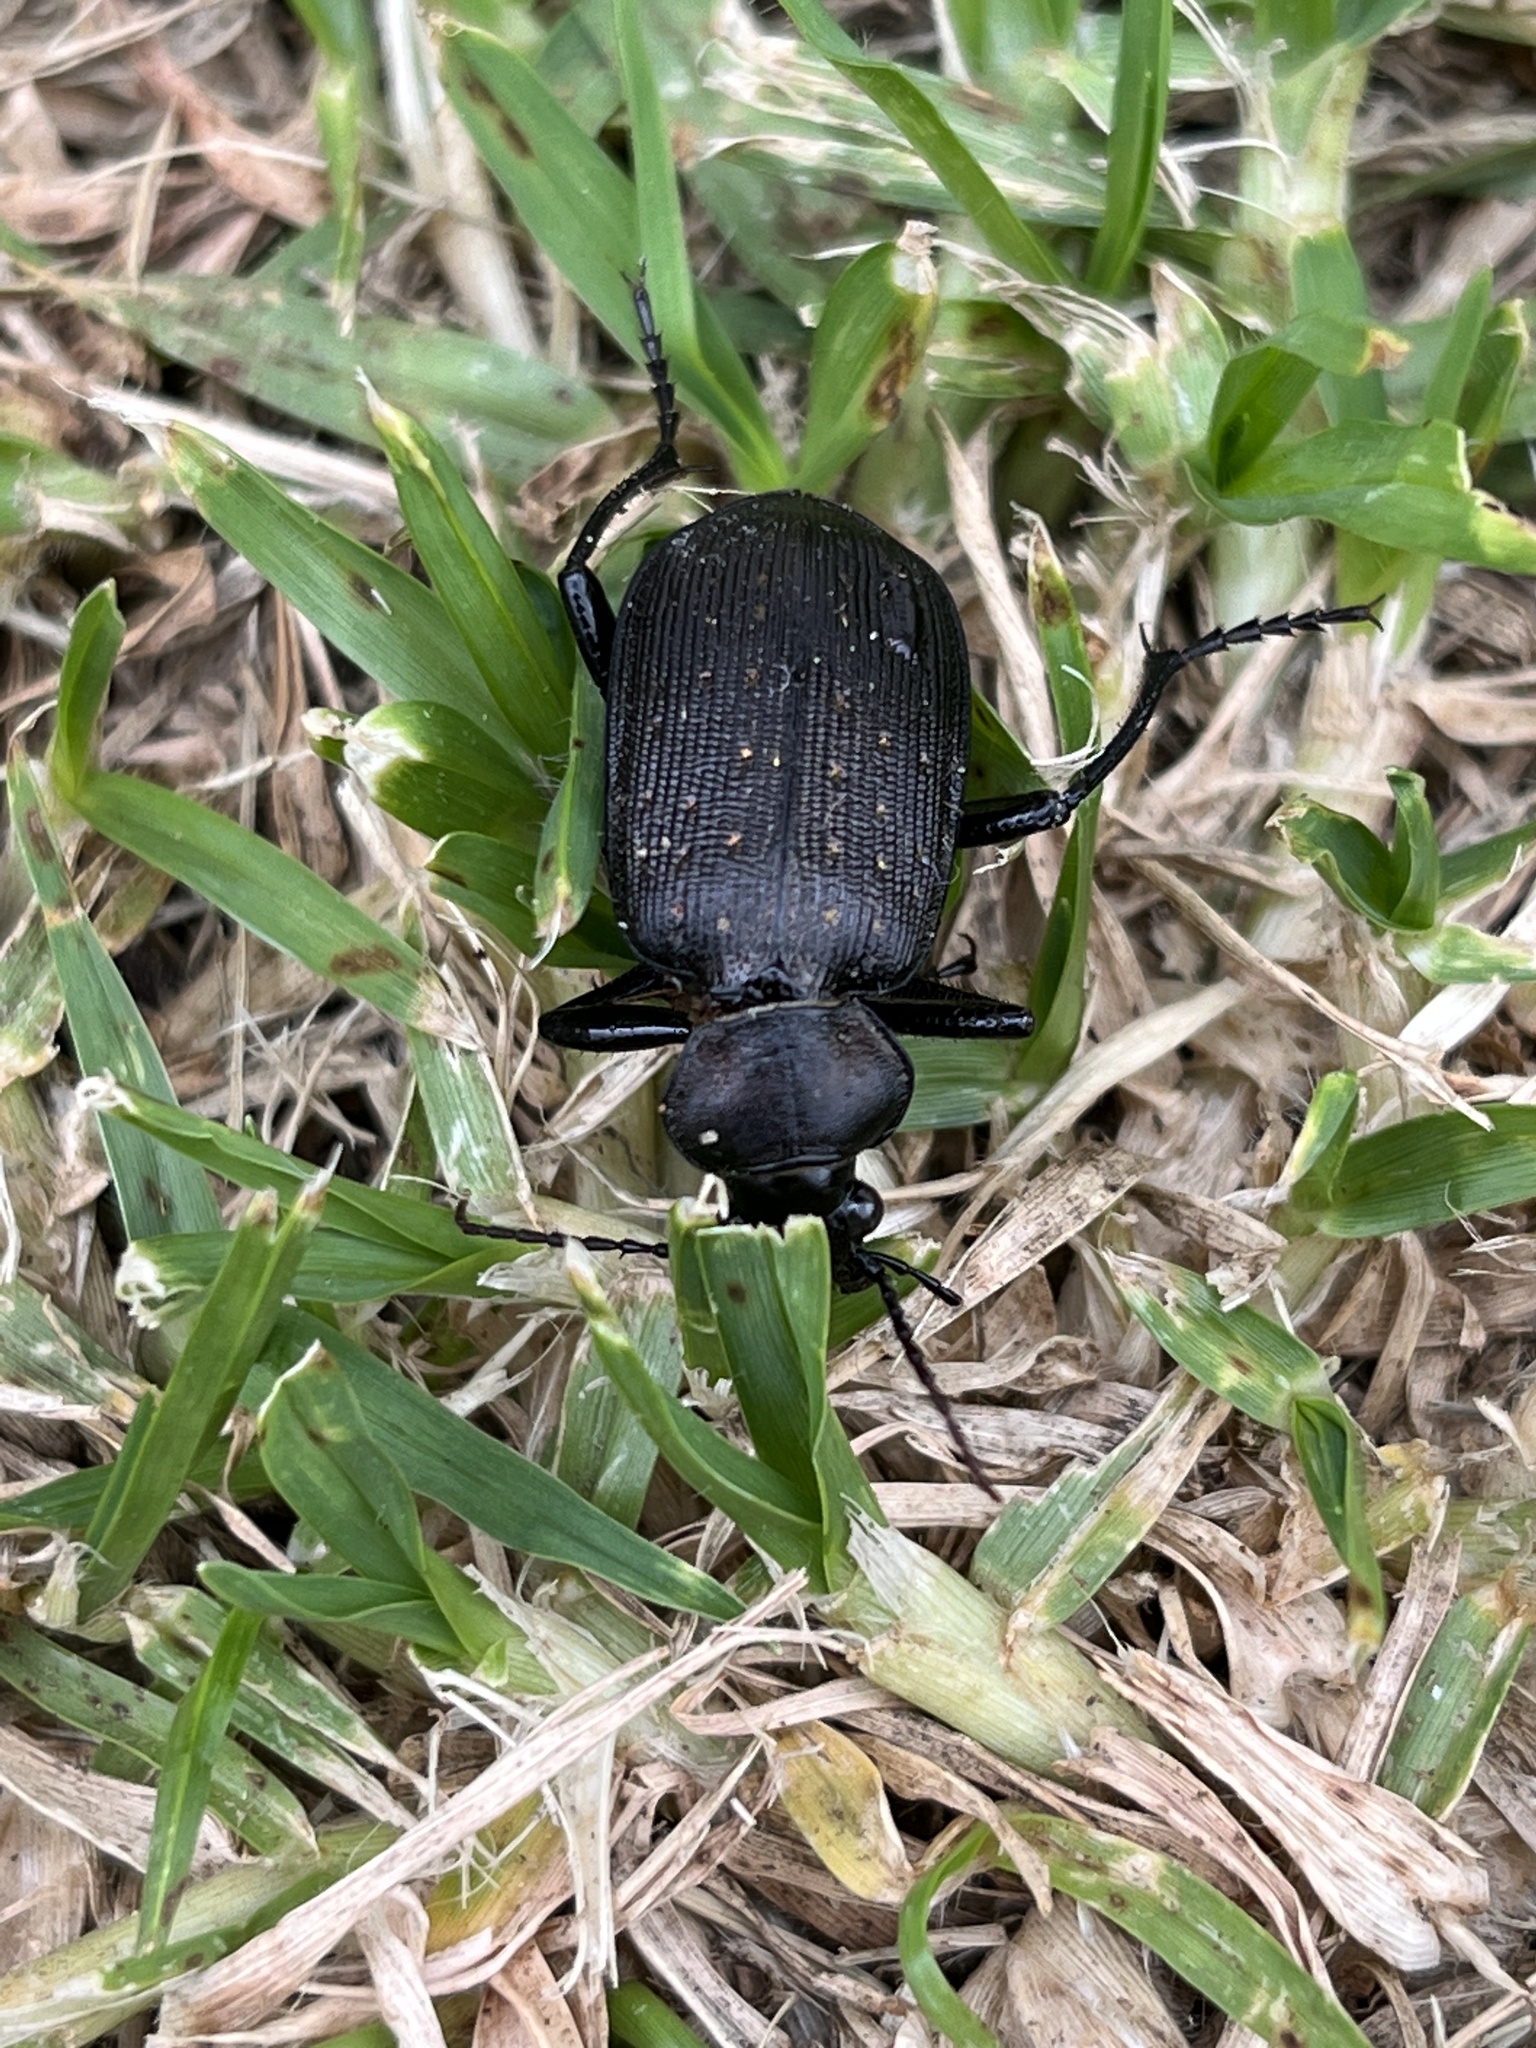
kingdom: Animalia
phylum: Arthropoda
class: Insecta
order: Coleoptera
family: Carabidae
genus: Calosoma
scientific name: Calosoma chlorostictum
